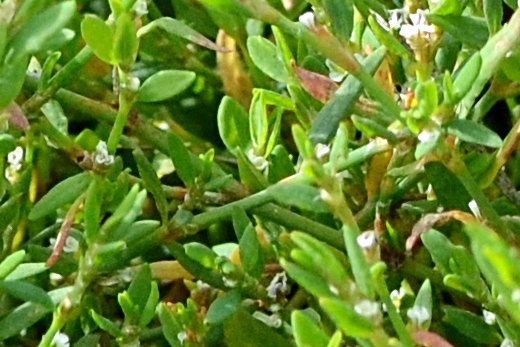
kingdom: Plantae
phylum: Tracheophyta
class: Magnoliopsida
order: Caryophyllales
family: Polygonaceae
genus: Polygonum
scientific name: Polygonum arenastrum
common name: Equal-leaved knotgrass
